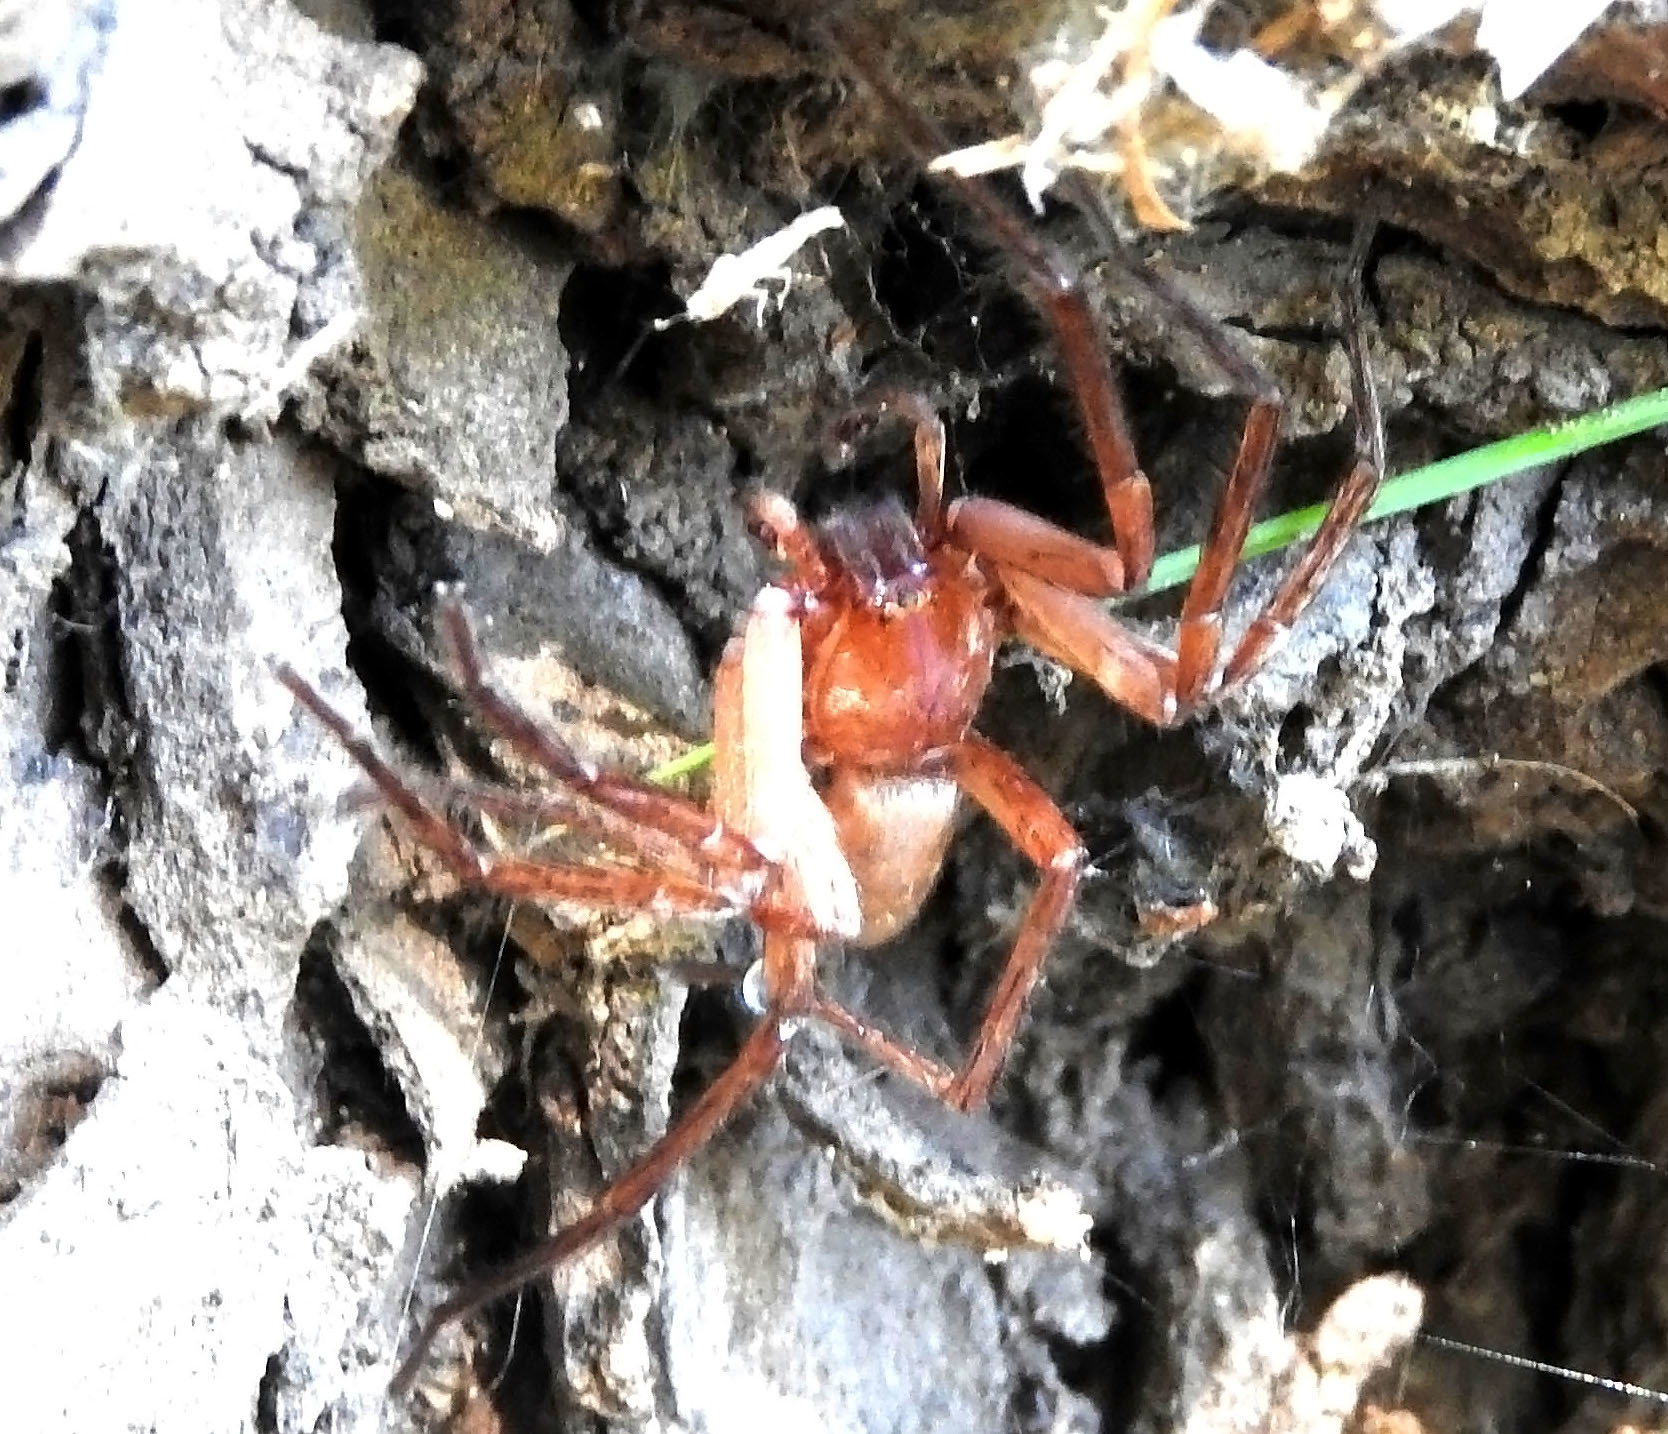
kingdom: Animalia
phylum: Arthropoda
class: Arachnida
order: Araneae
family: Ctenidae
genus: Asthenoctenus
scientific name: Asthenoctenus borellii
